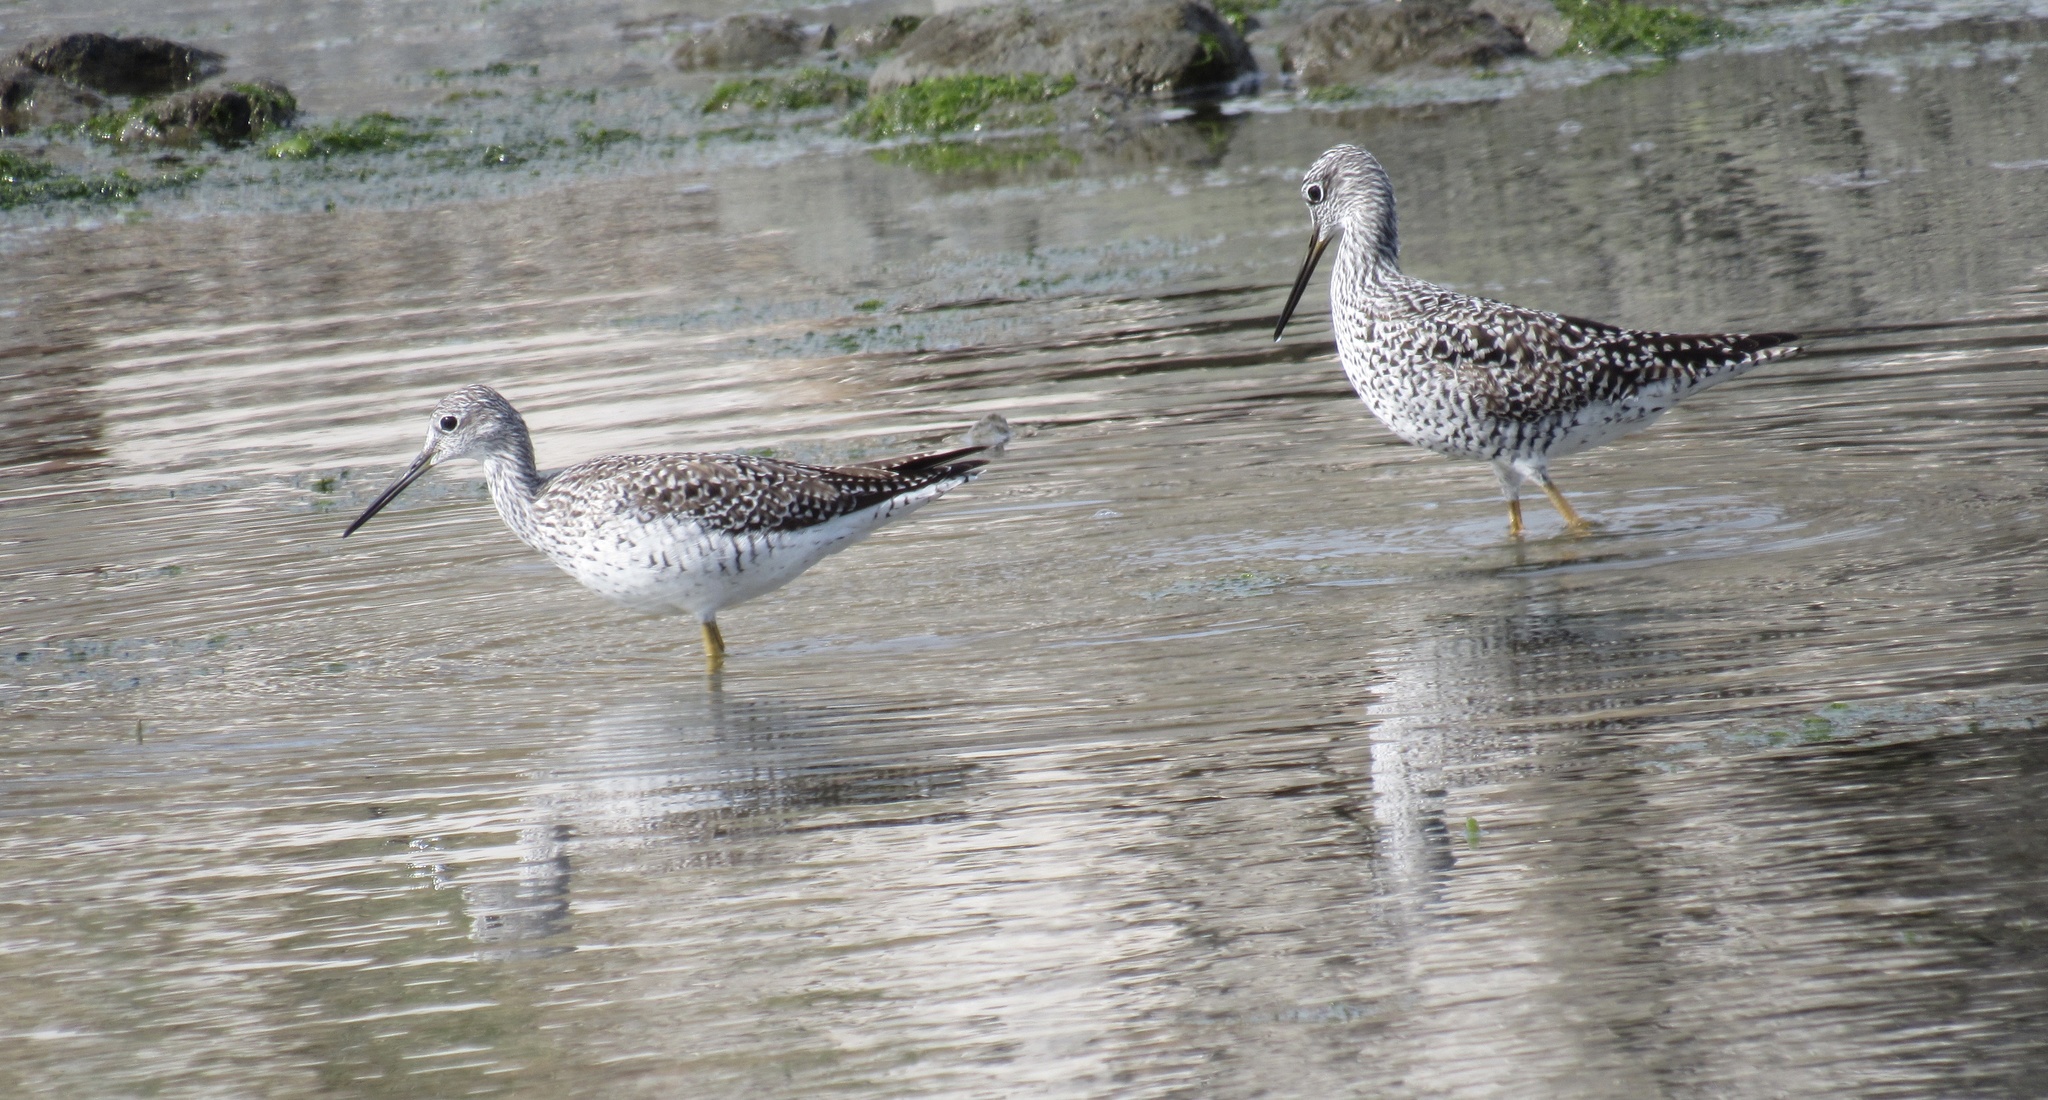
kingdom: Animalia
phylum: Chordata
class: Aves
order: Charadriiformes
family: Scolopacidae
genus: Tringa
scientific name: Tringa melanoleuca
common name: Greater yellowlegs
